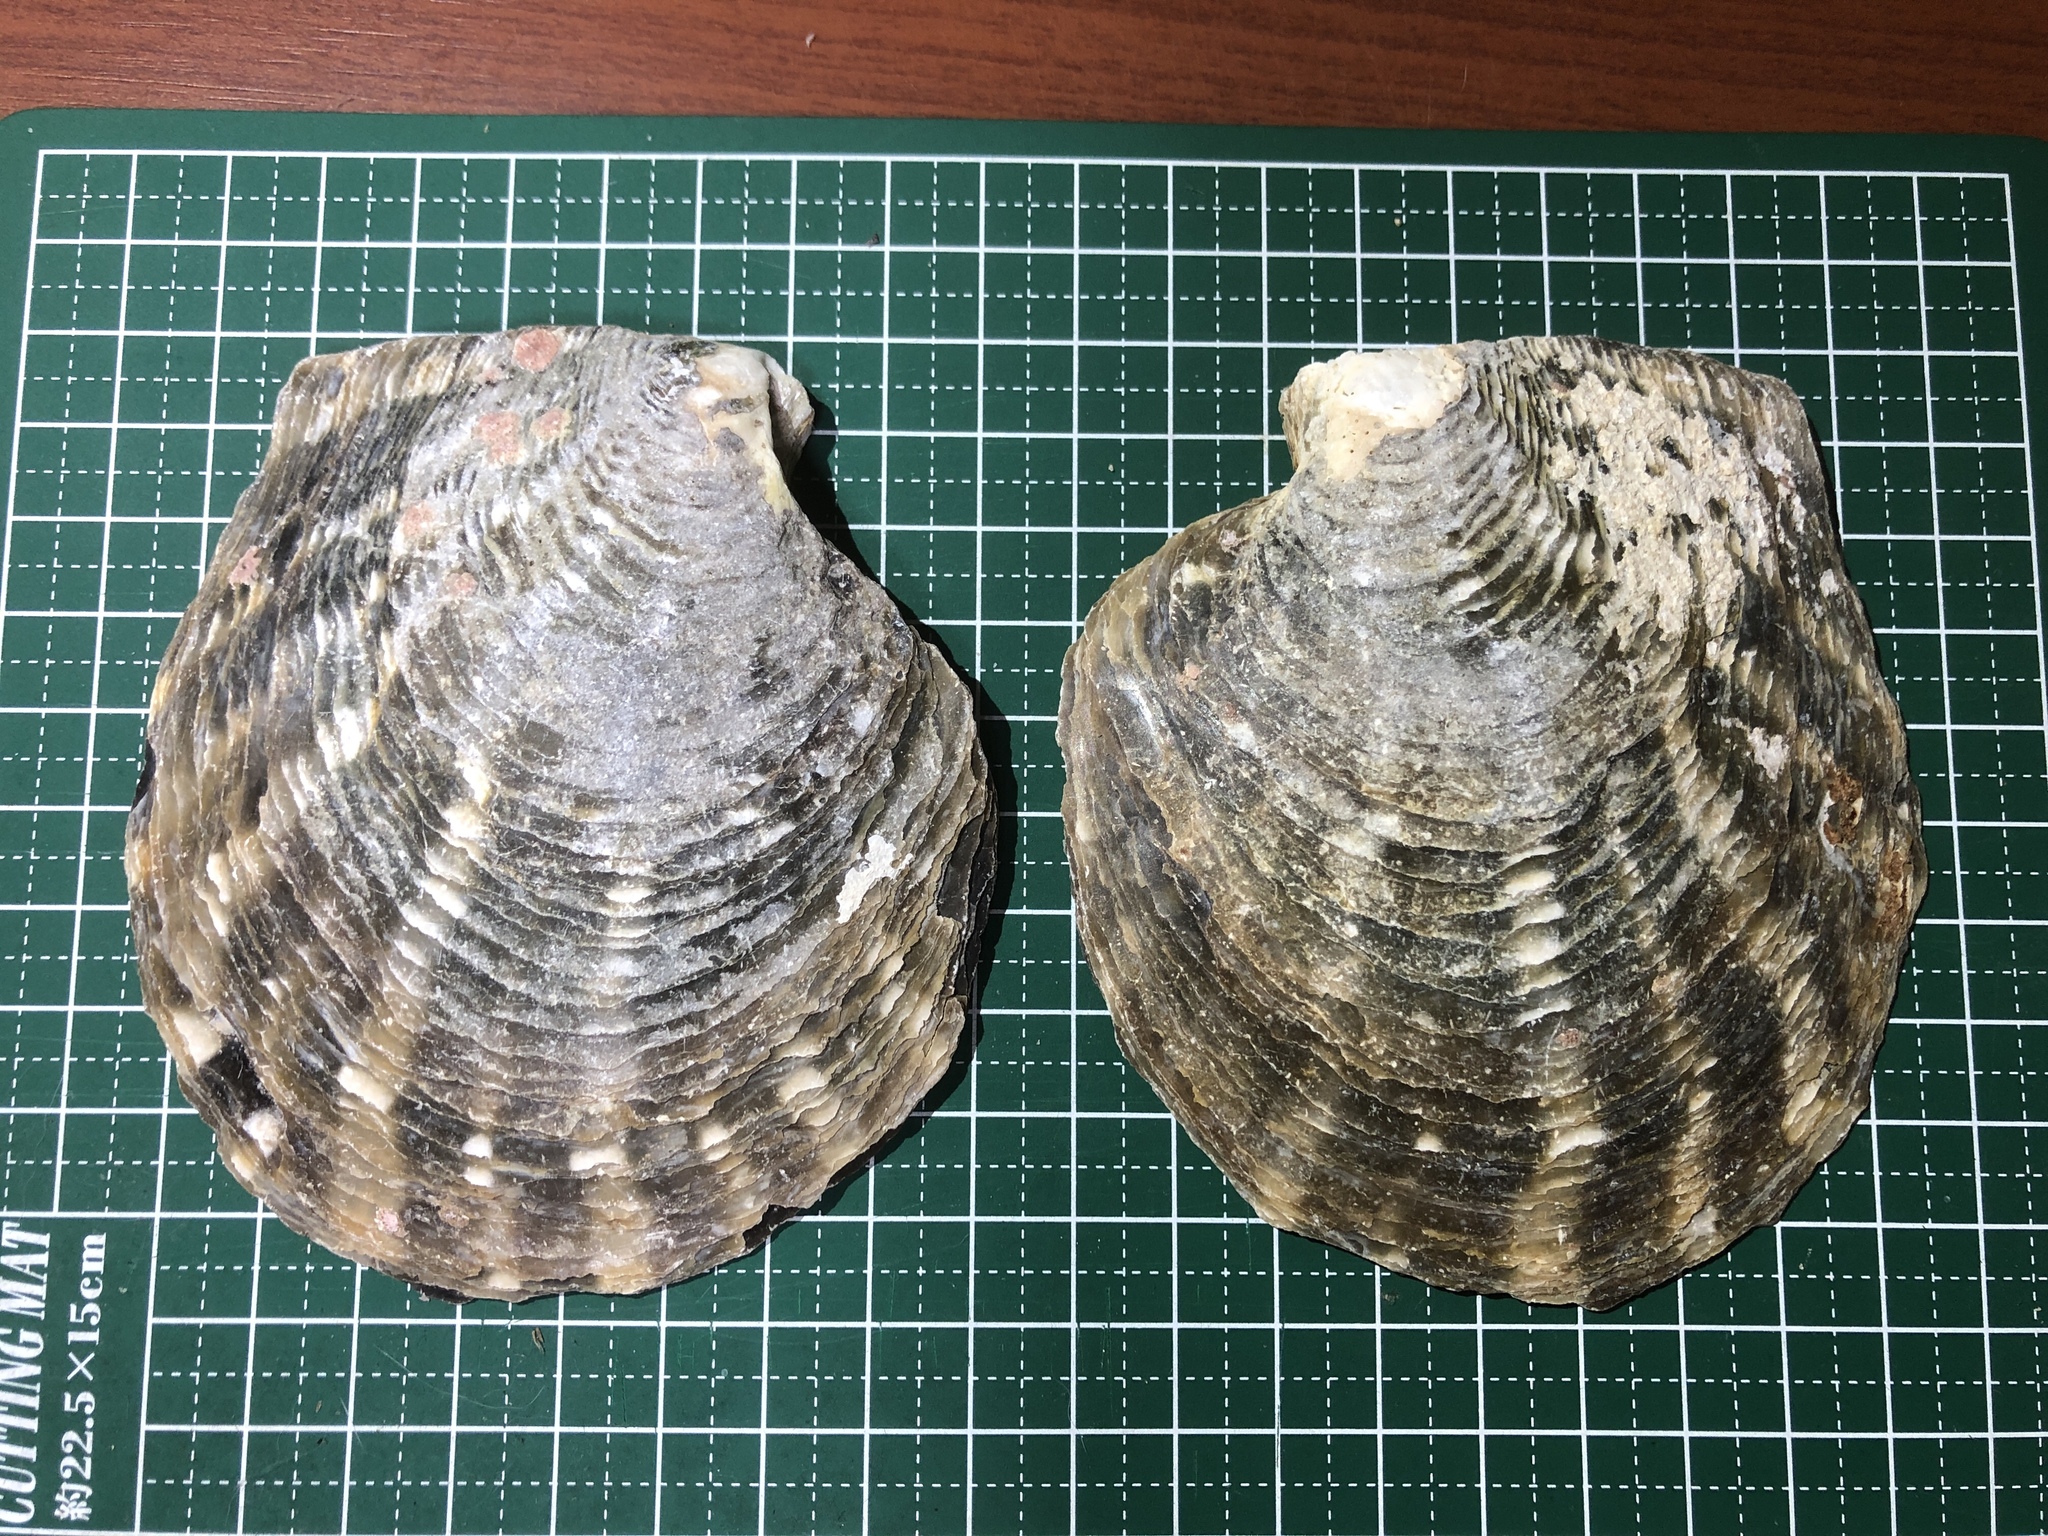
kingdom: Animalia
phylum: Mollusca
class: Bivalvia
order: Ostreida
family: Margaritidae
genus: Pinctada
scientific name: Pinctada margaritifera
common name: Pacific pearl-oyster
